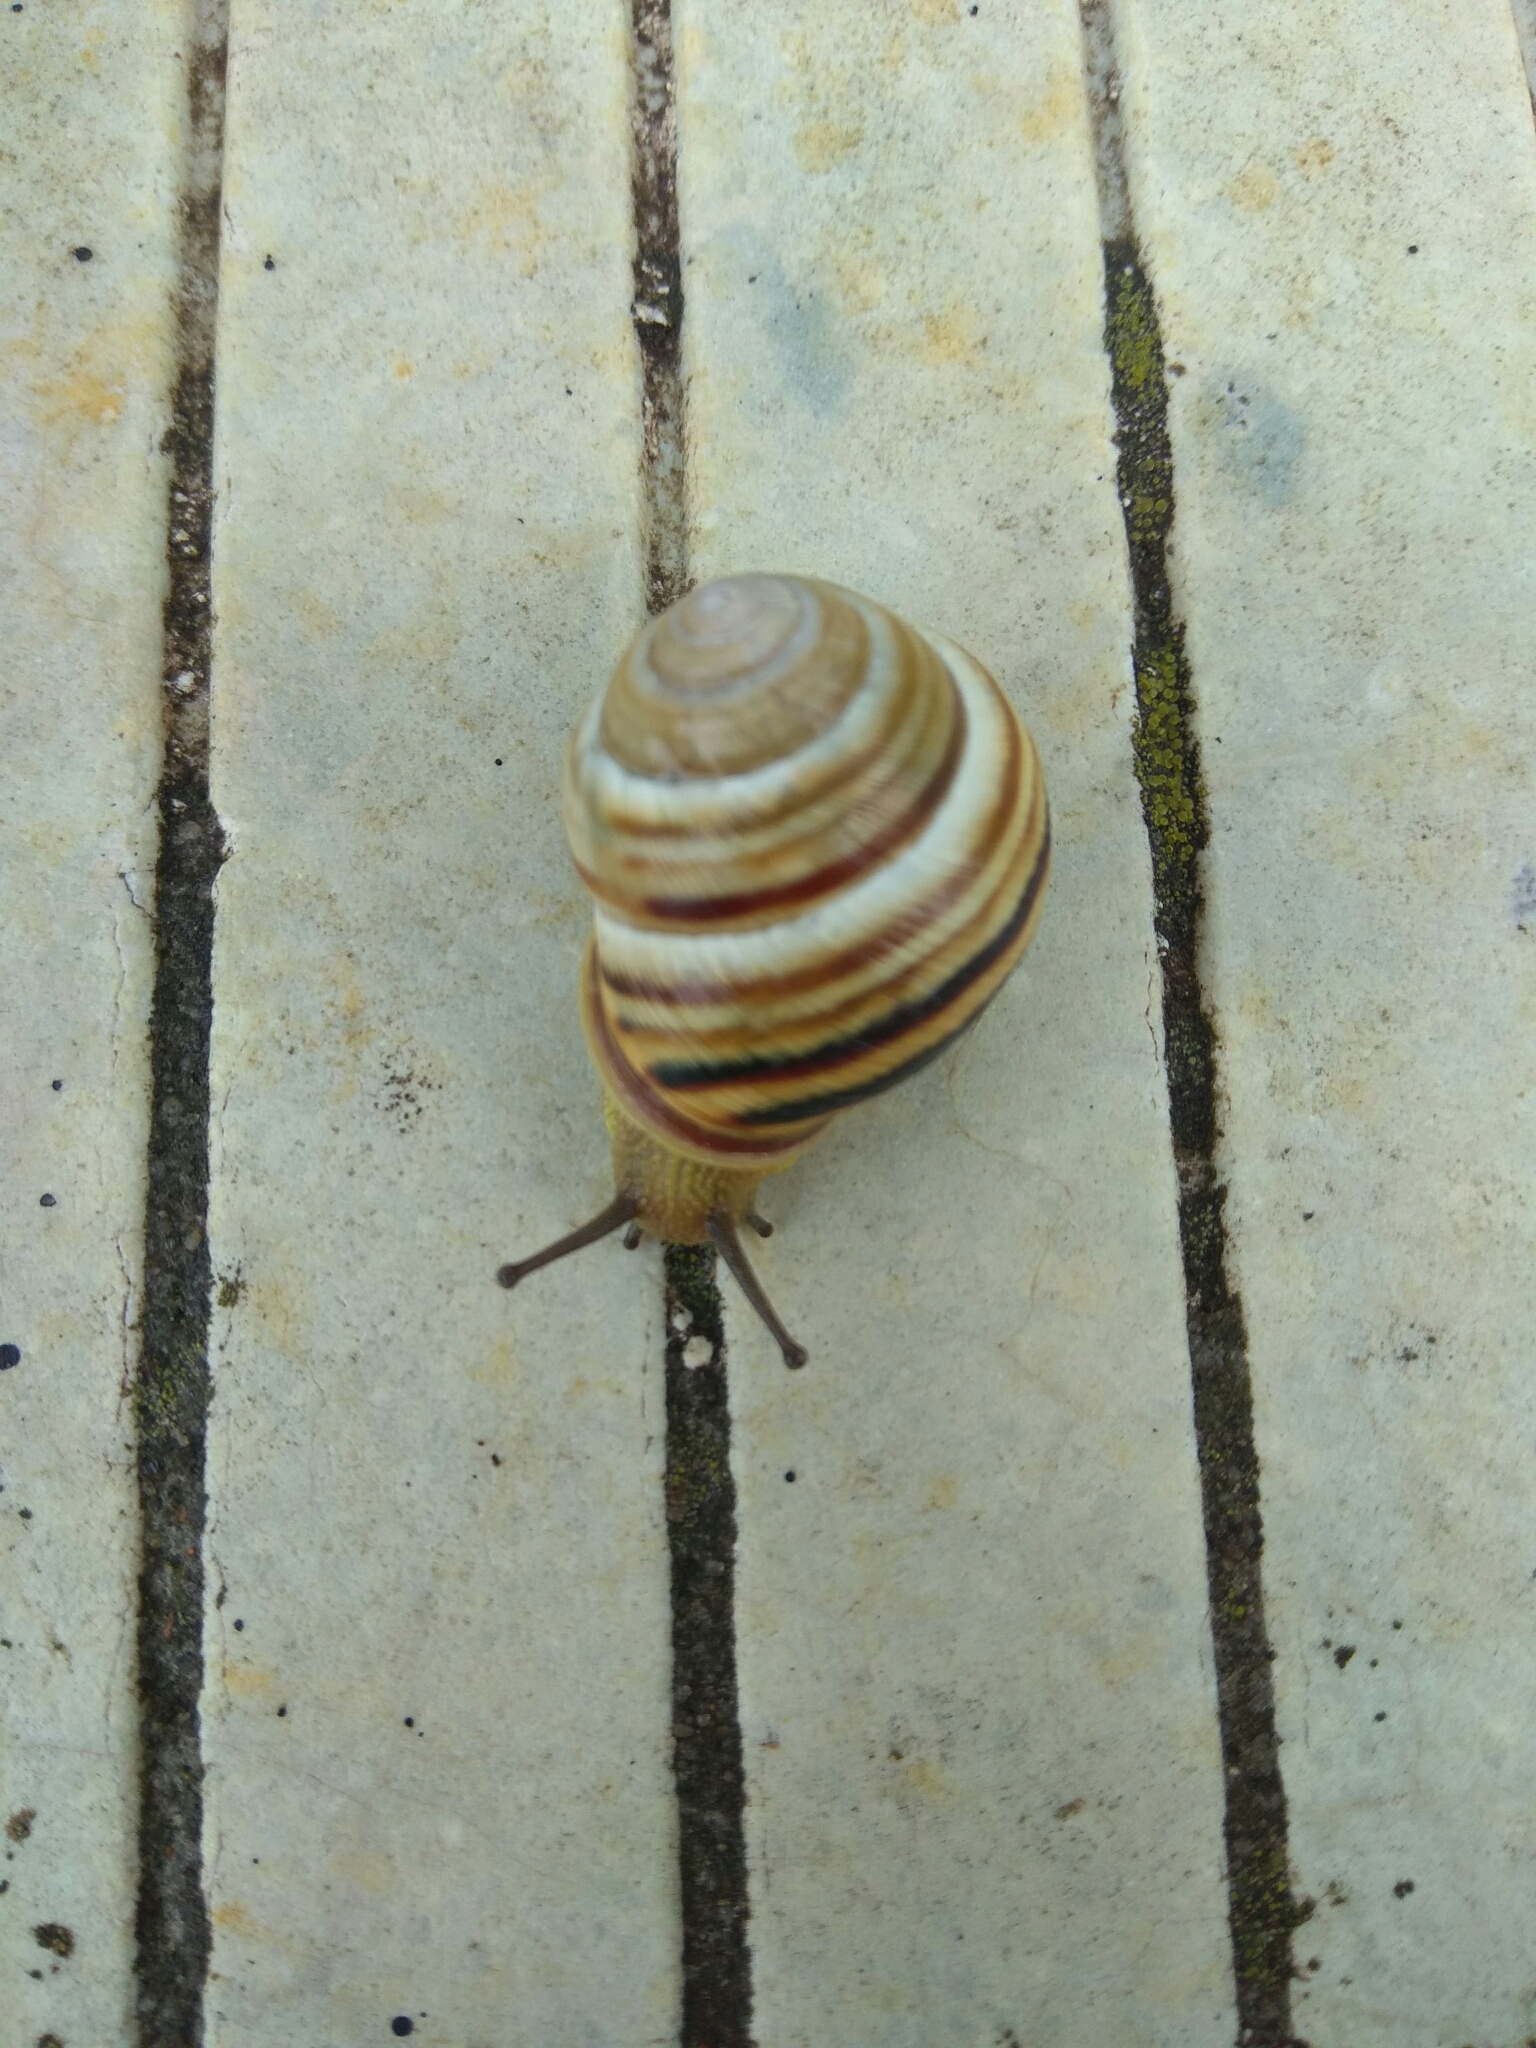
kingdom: Animalia
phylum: Mollusca
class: Gastropoda
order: Stylommatophora
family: Helicidae
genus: Caucasotachea
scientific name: Caucasotachea vindobonensis
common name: European helicid land snail
